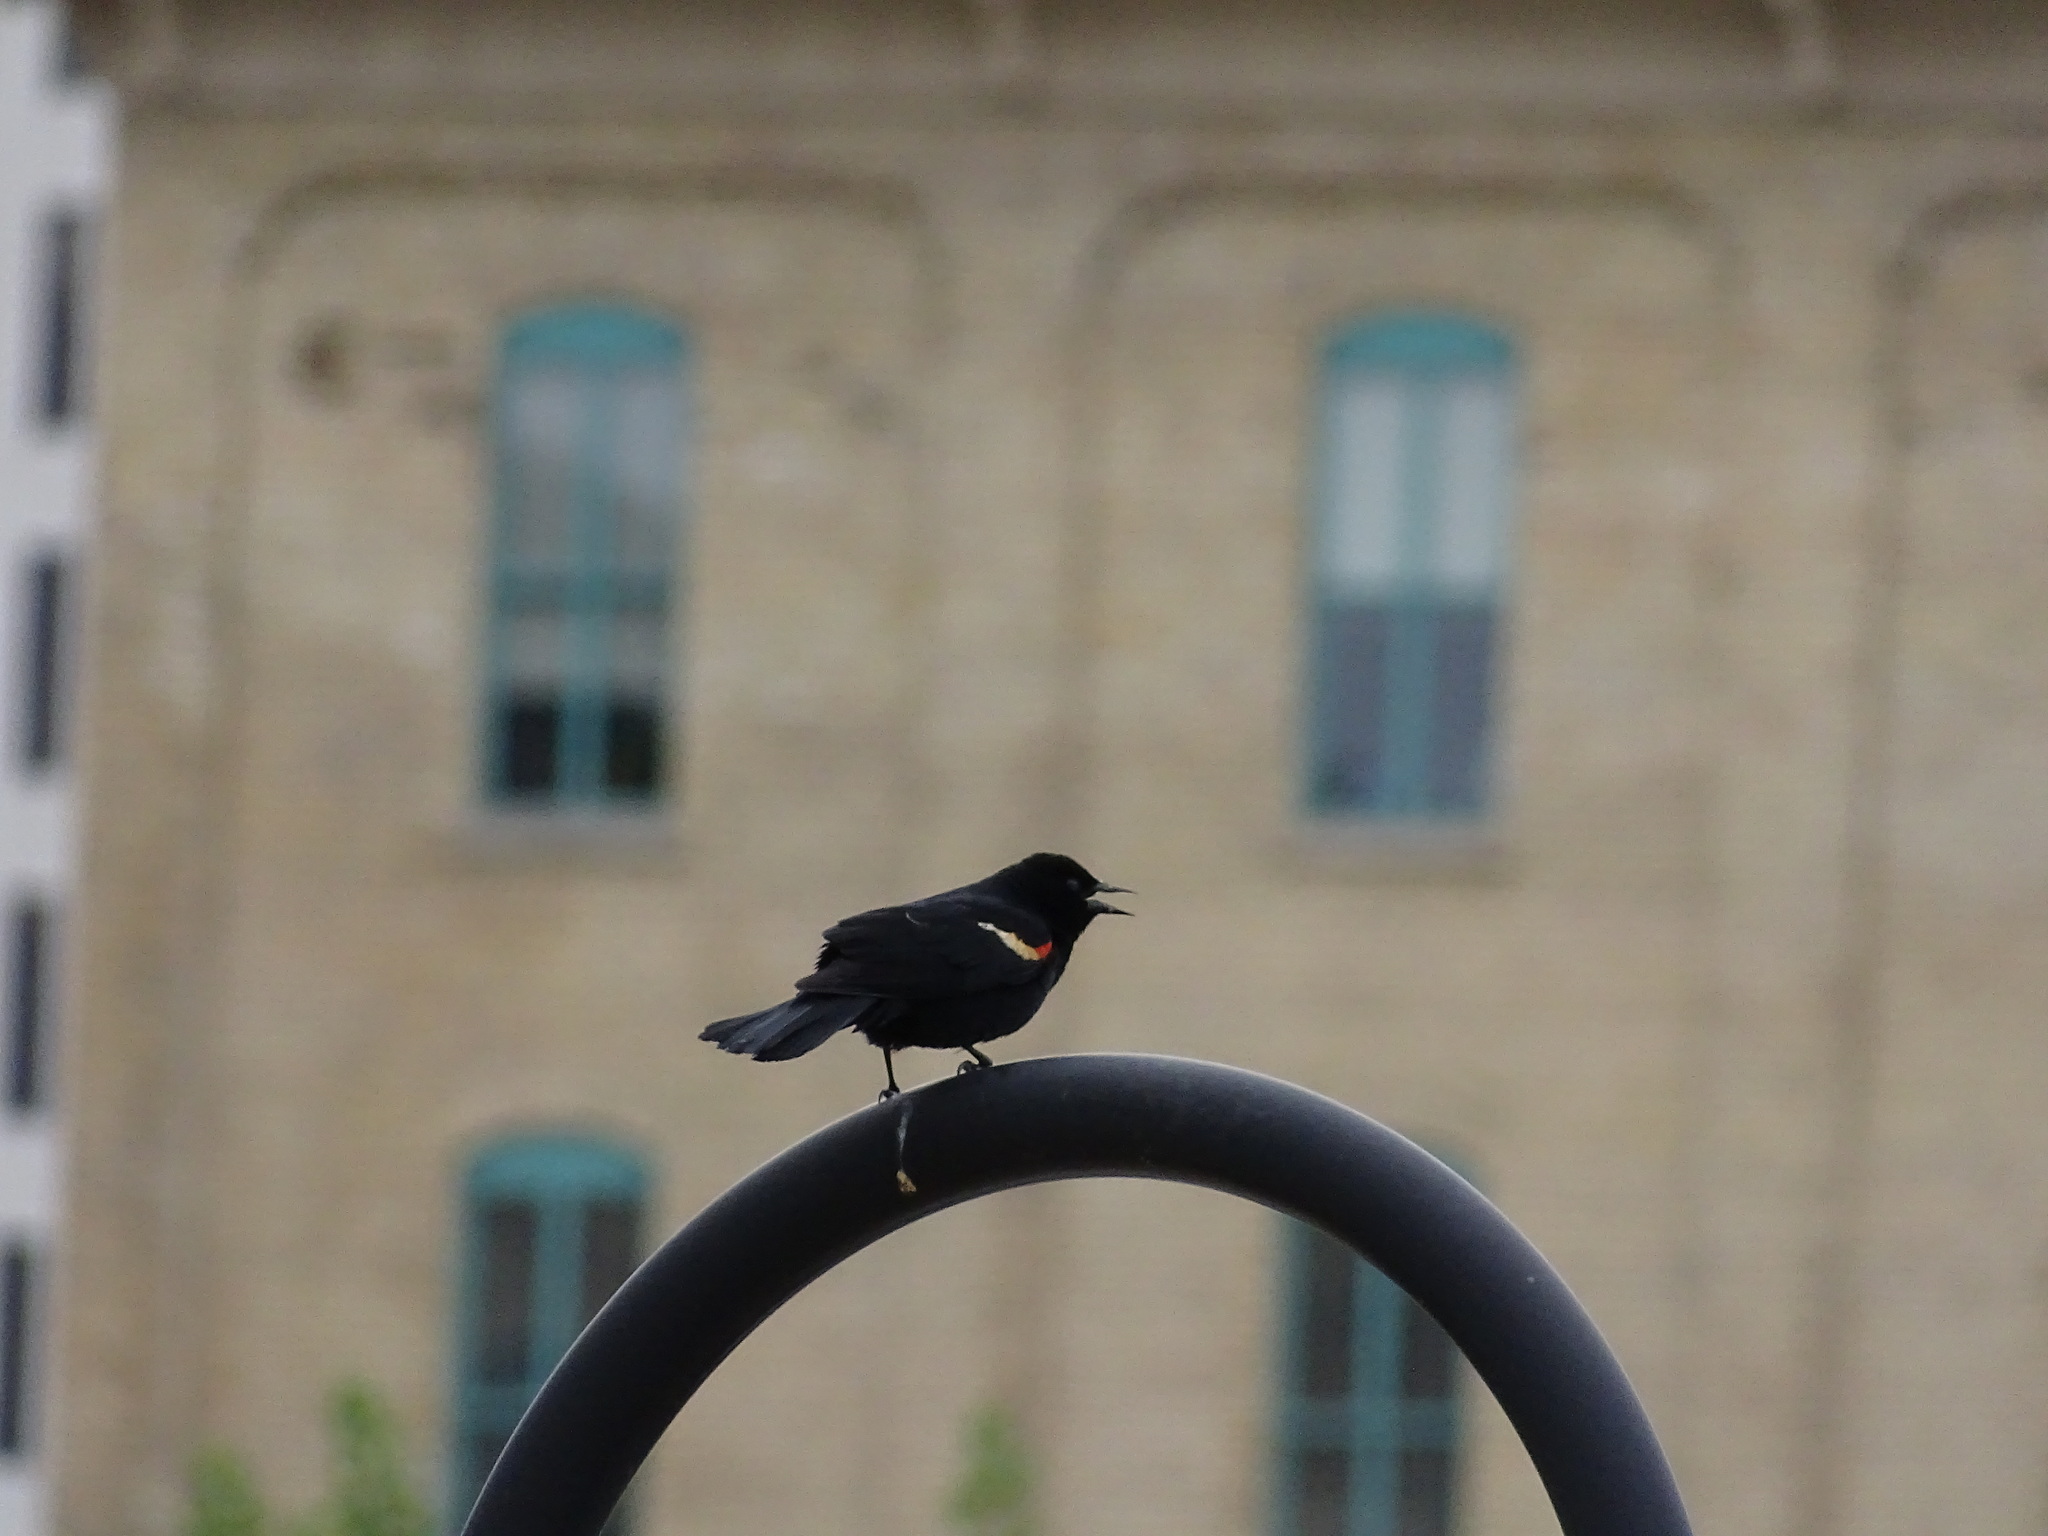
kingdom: Animalia
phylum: Chordata
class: Aves
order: Passeriformes
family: Icteridae
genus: Agelaius
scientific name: Agelaius phoeniceus
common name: Red-winged blackbird
